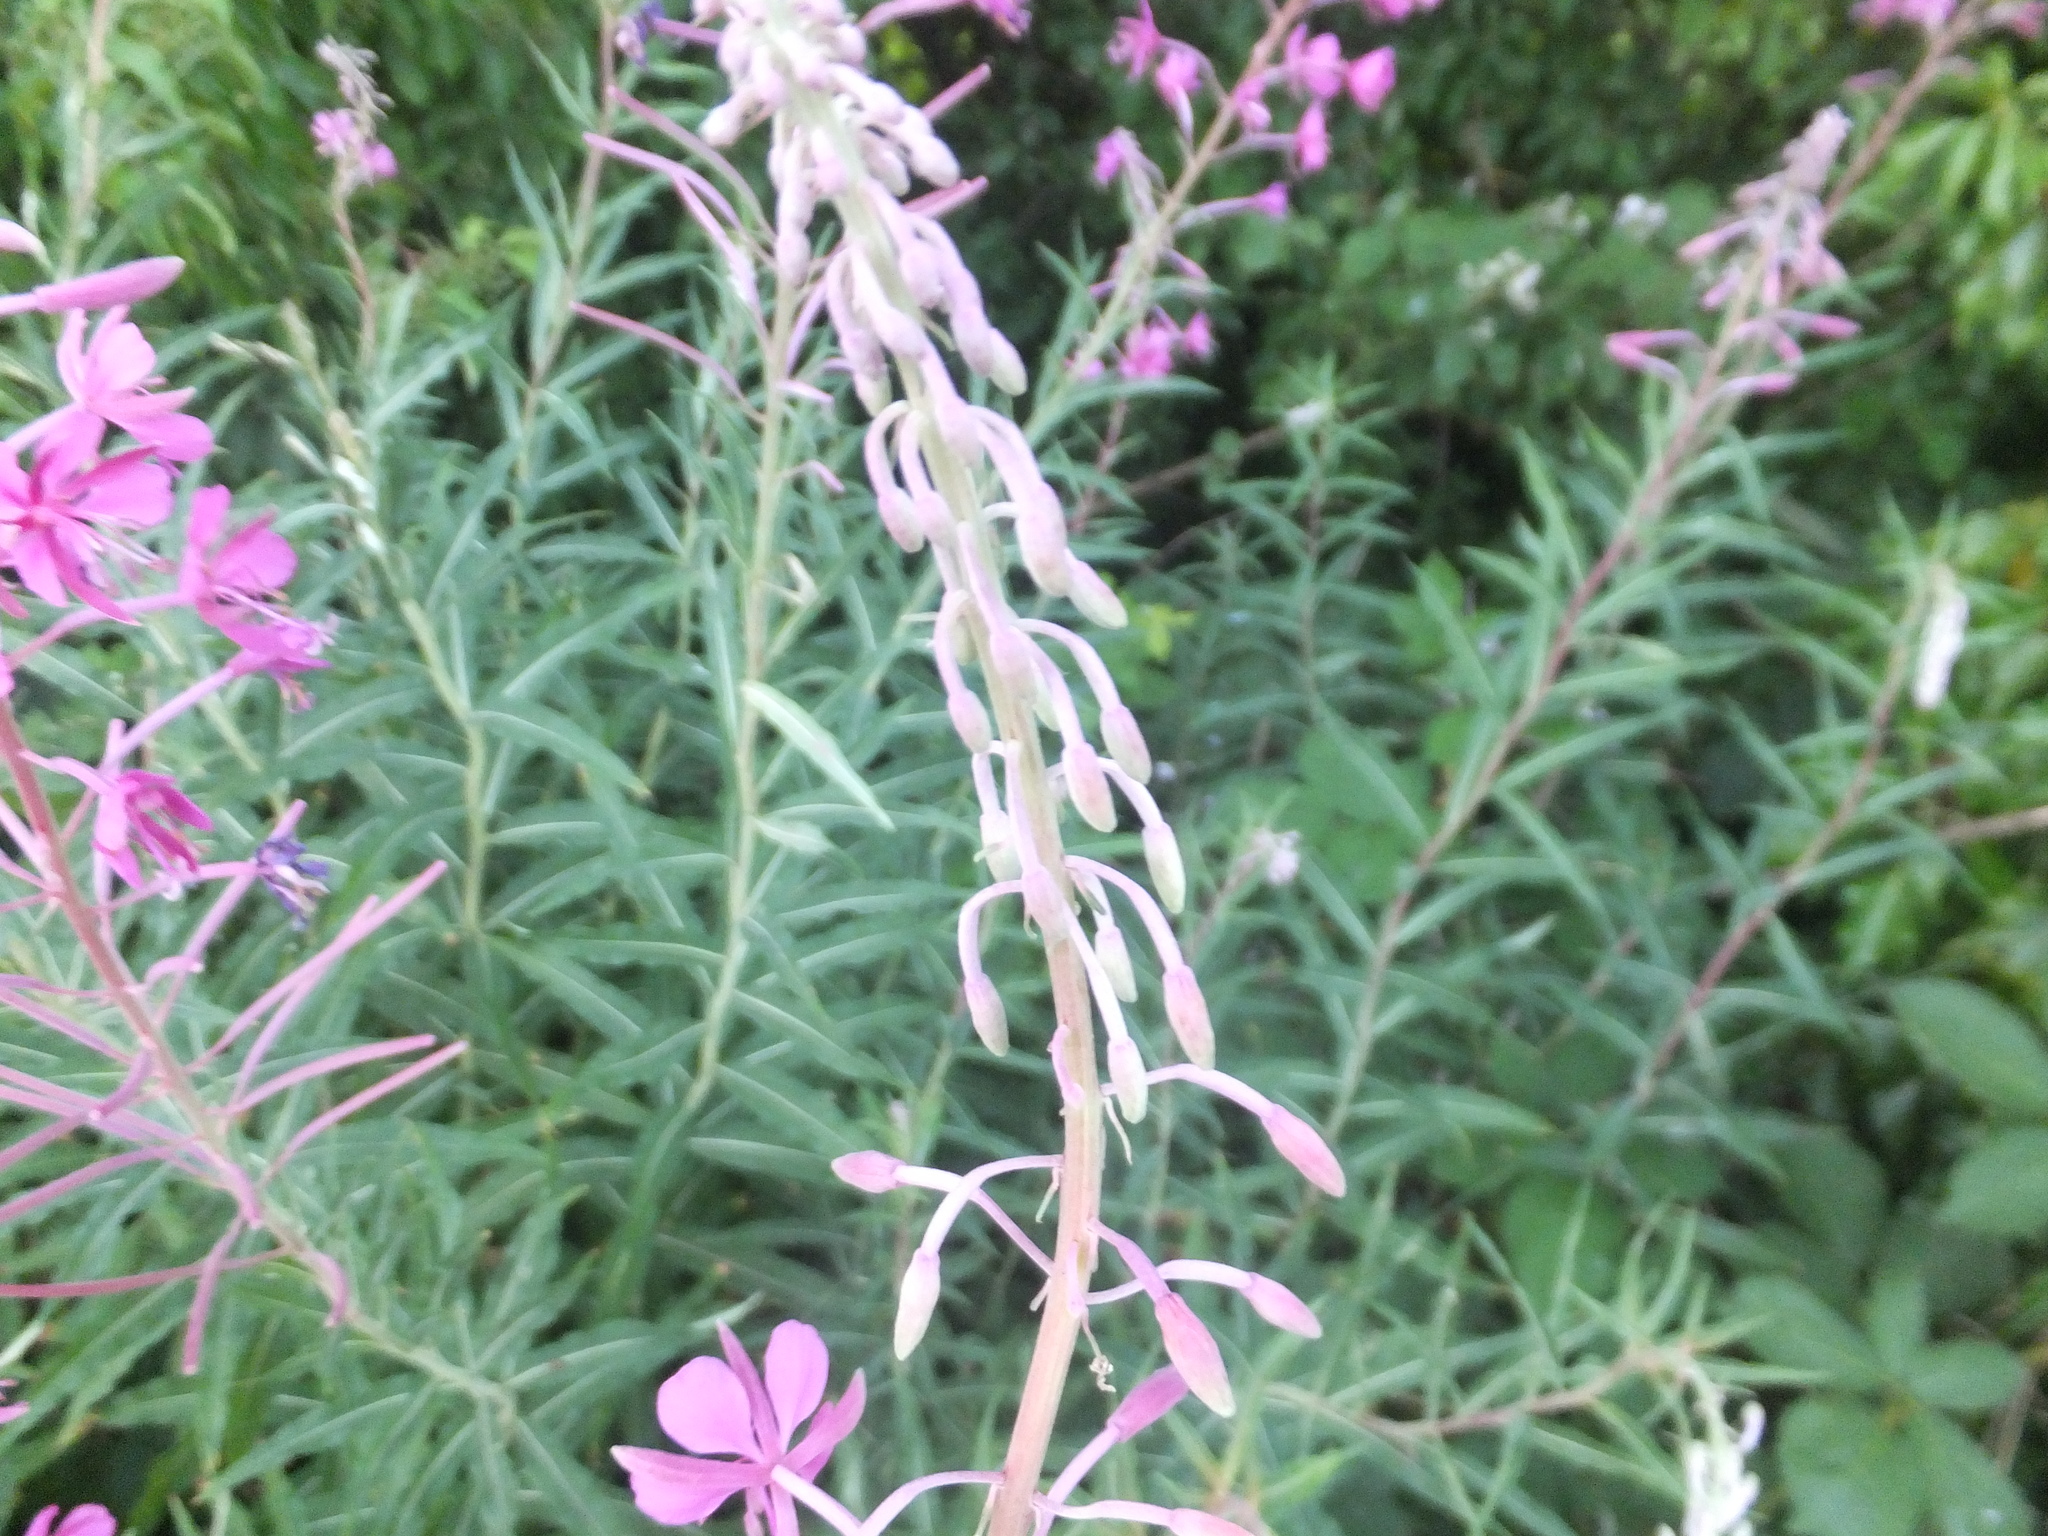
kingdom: Plantae
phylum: Tracheophyta
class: Magnoliopsida
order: Myrtales
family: Onagraceae
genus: Chamaenerion
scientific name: Chamaenerion angustifolium
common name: Fireweed
